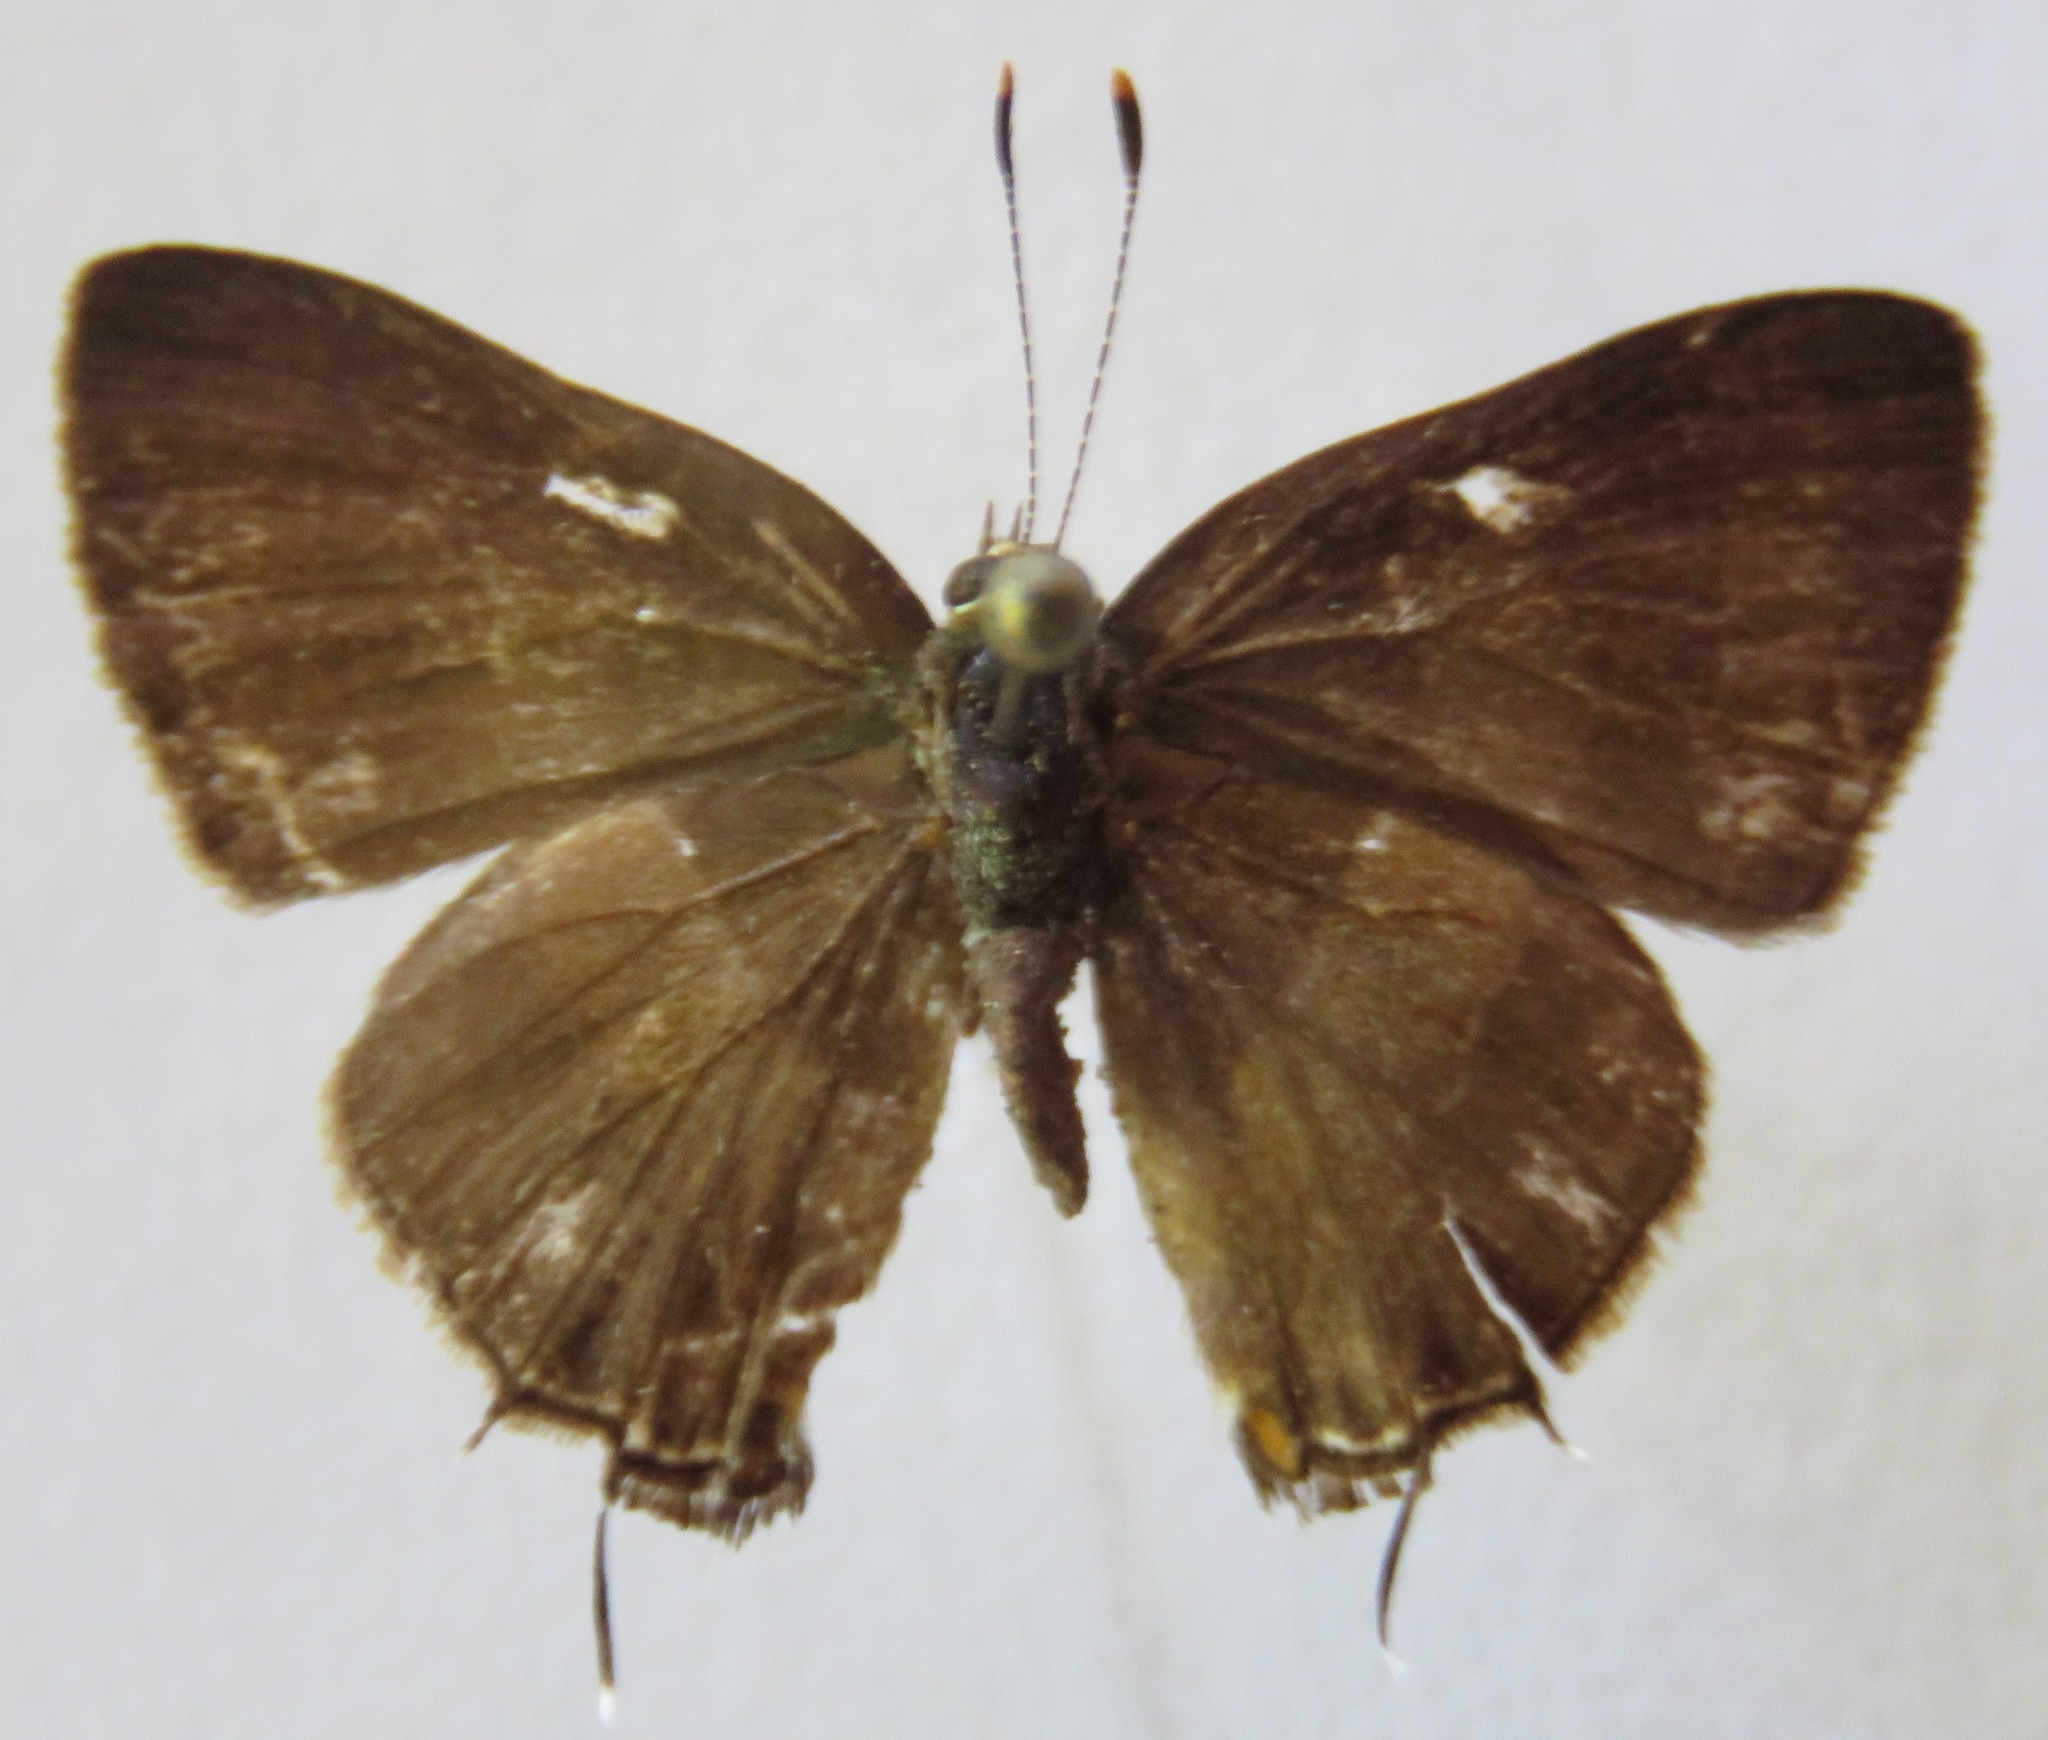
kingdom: Animalia
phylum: Arthropoda
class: Insecta
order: Lepidoptera
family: Lycaenidae
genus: Arzecla
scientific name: Arzecla arza
